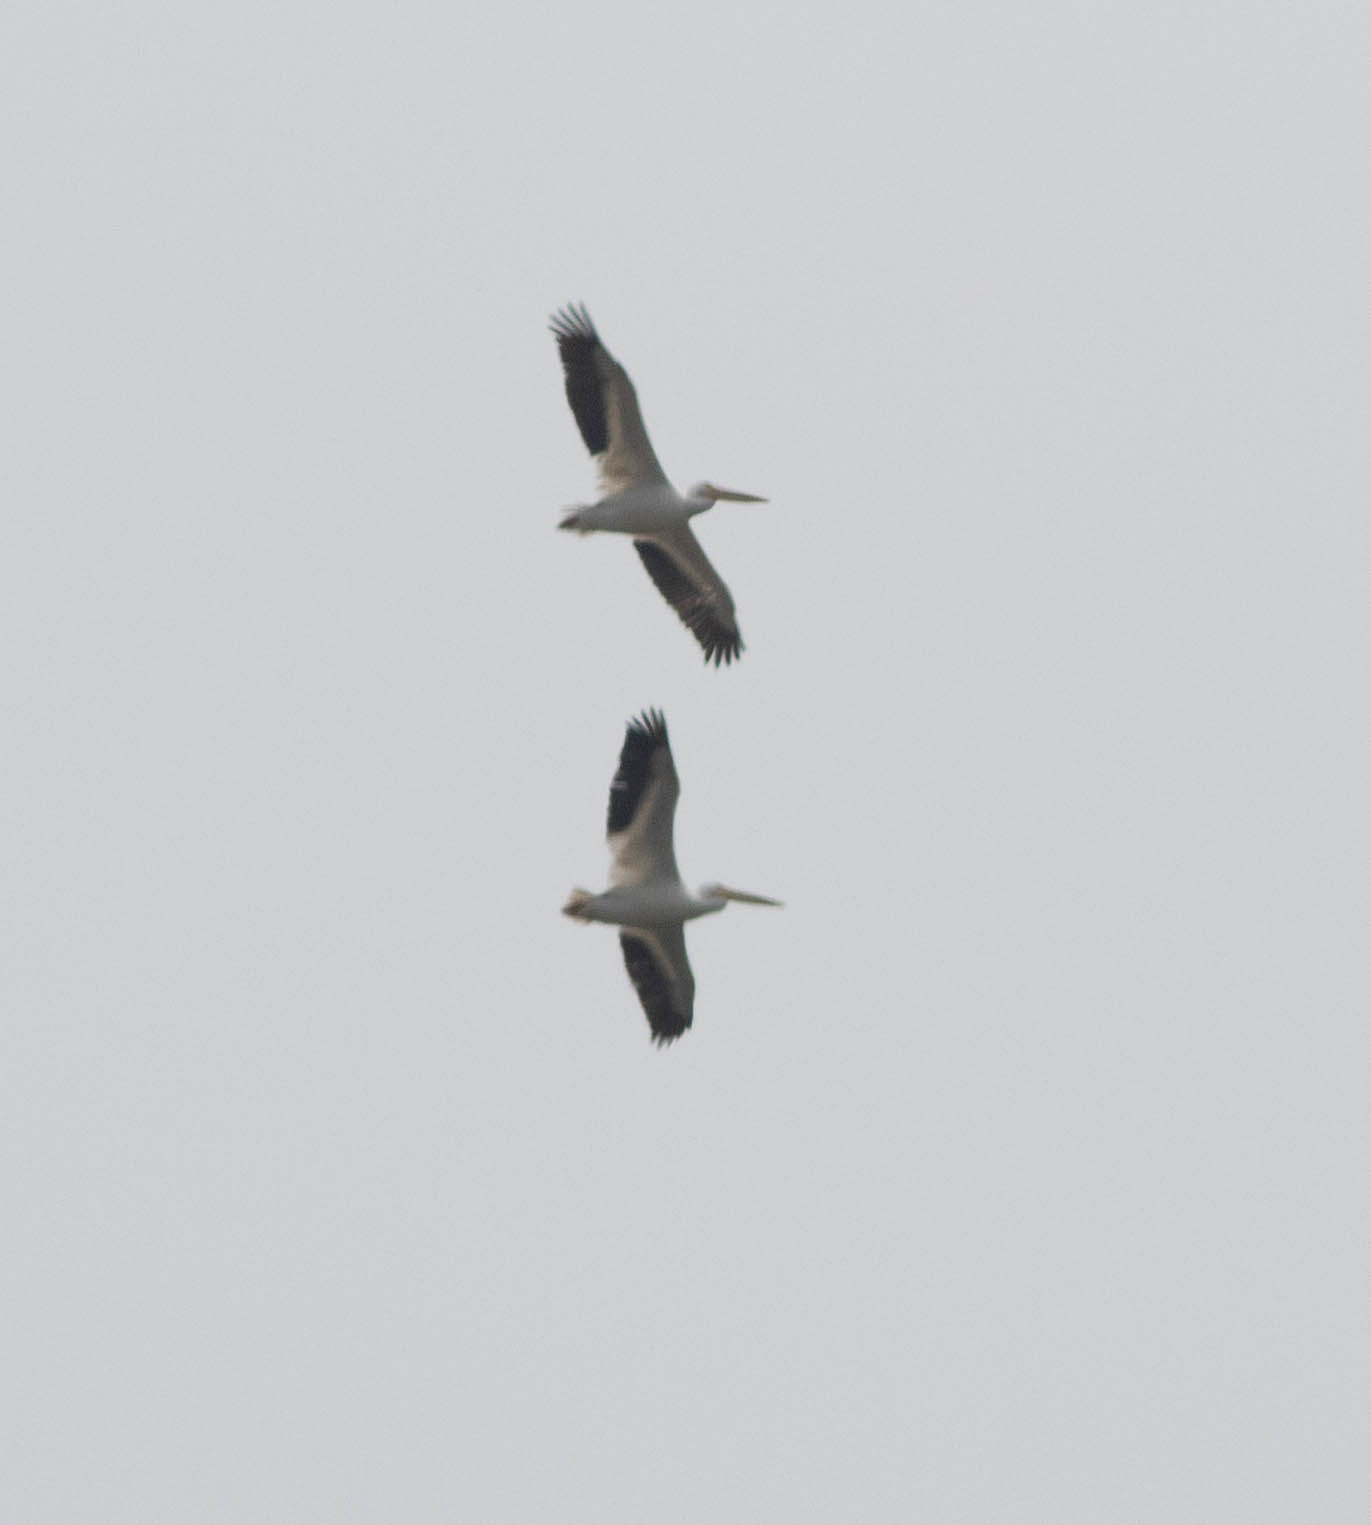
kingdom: Animalia
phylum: Chordata
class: Aves
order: Pelecaniformes
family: Pelecanidae
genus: Pelecanus
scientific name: Pelecanus erythrorhynchos
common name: American white pelican
